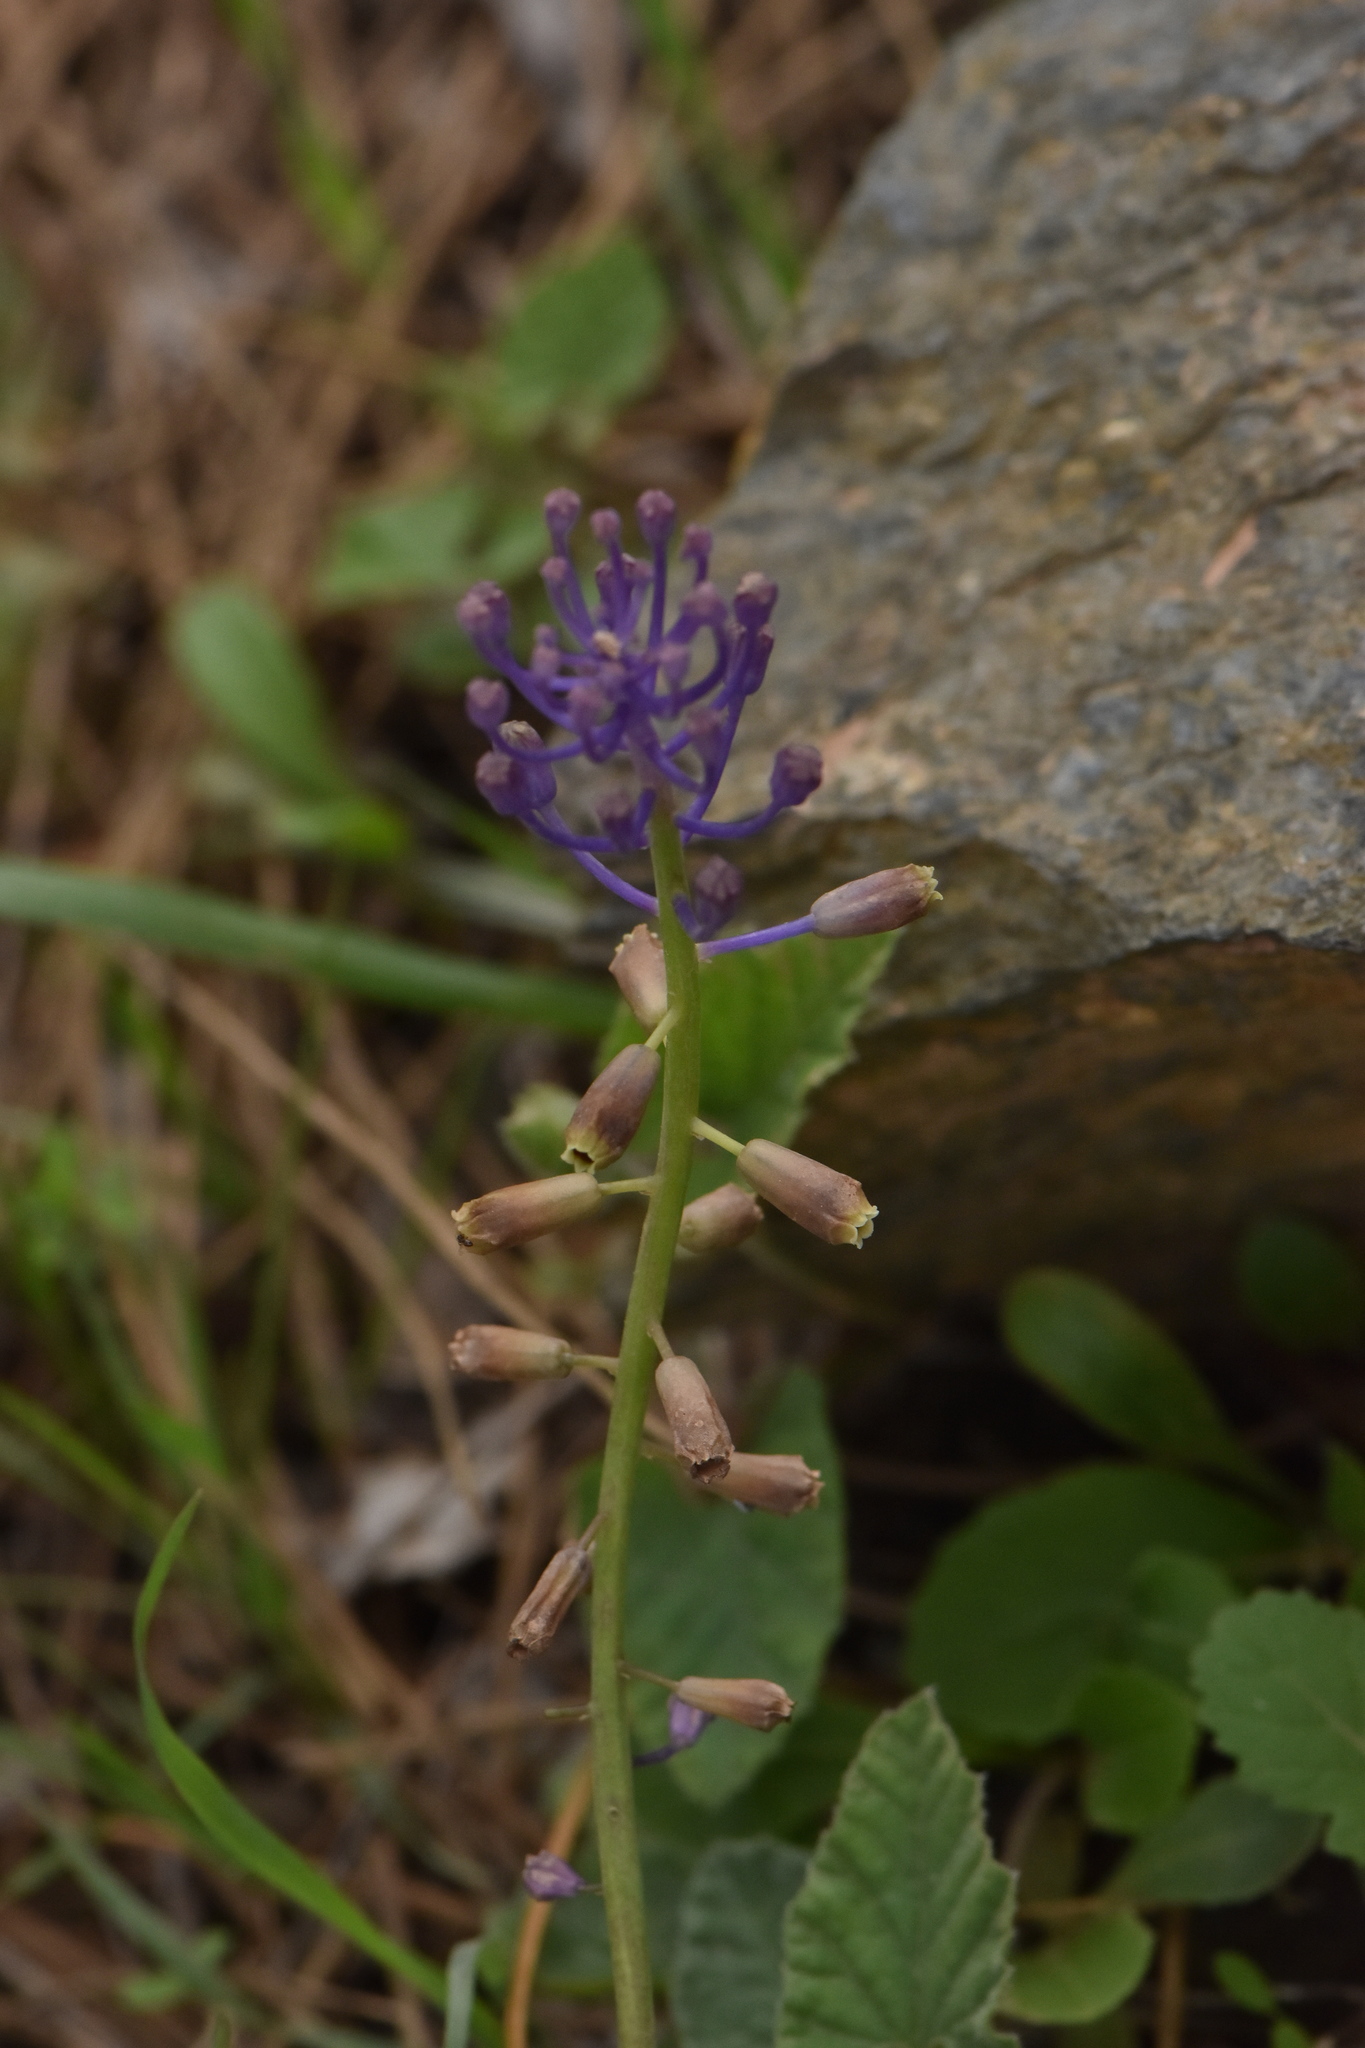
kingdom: Plantae
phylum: Tracheophyta
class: Liliopsida
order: Asparagales
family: Asparagaceae
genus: Muscari
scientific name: Muscari comosum
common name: Tassel hyacinth
